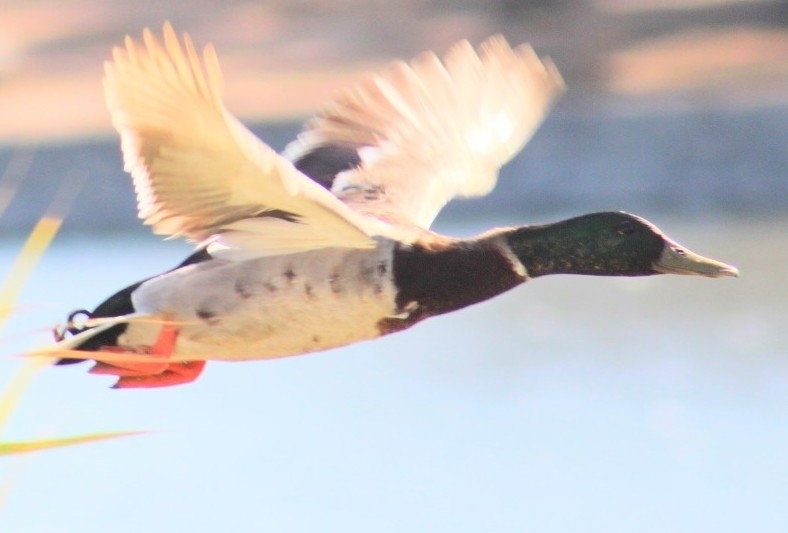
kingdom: Animalia
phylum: Chordata
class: Aves
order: Anseriformes
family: Anatidae
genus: Anas
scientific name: Anas platyrhynchos
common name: Mallard
